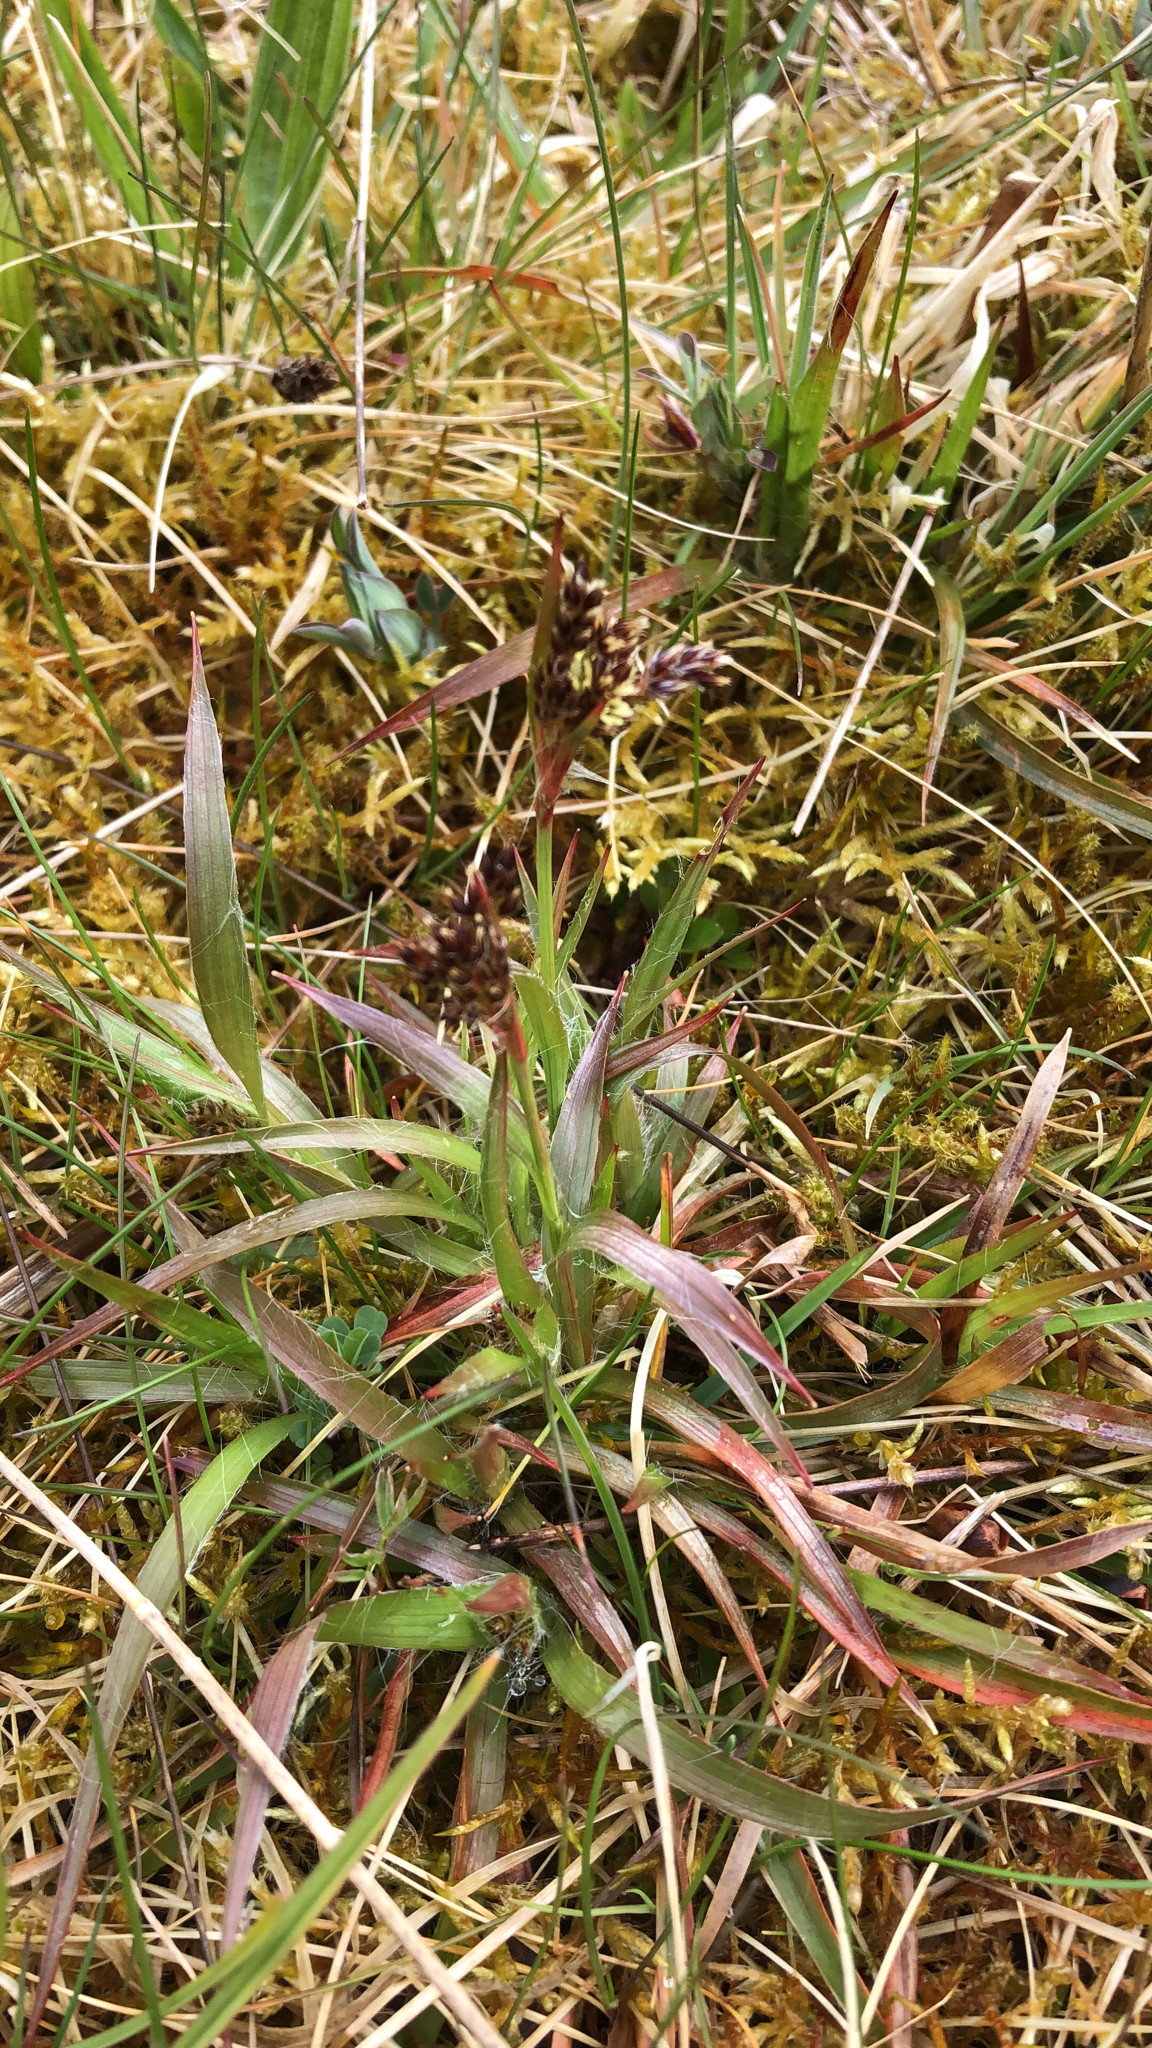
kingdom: Plantae
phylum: Tracheophyta
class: Liliopsida
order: Poales
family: Juncaceae
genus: Luzula
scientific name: Luzula campestris
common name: Field wood-rush
